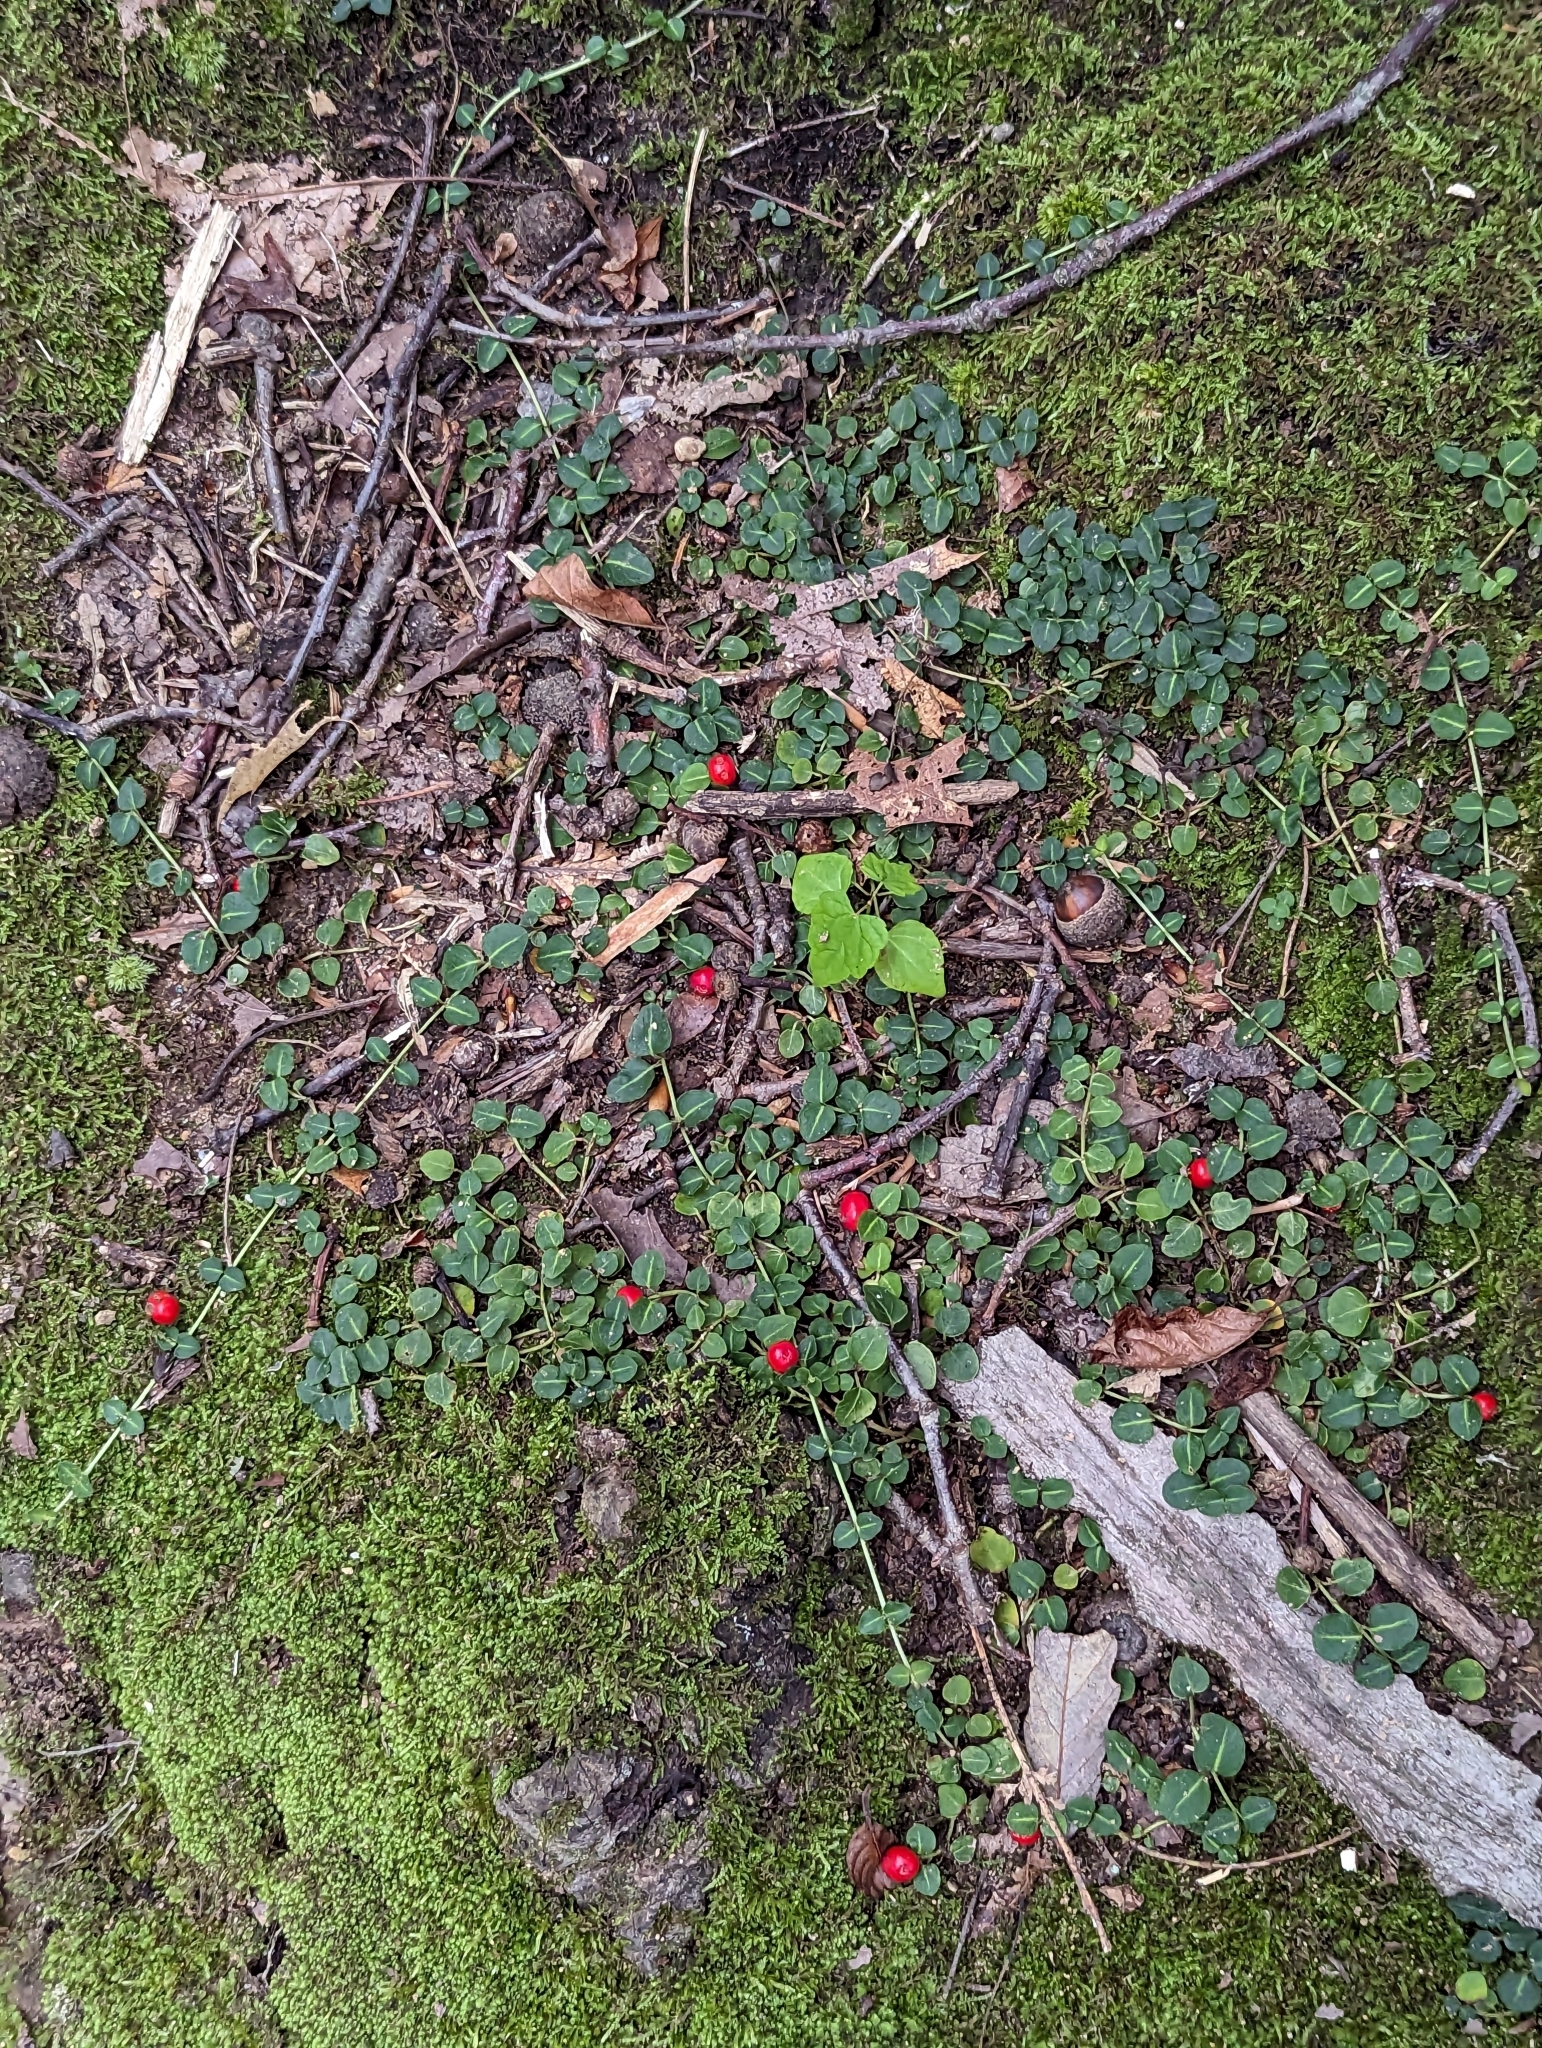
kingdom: Plantae
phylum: Tracheophyta
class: Magnoliopsida
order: Gentianales
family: Rubiaceae
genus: Mitchella
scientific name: Mitchella repens
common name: Partridge-berry
